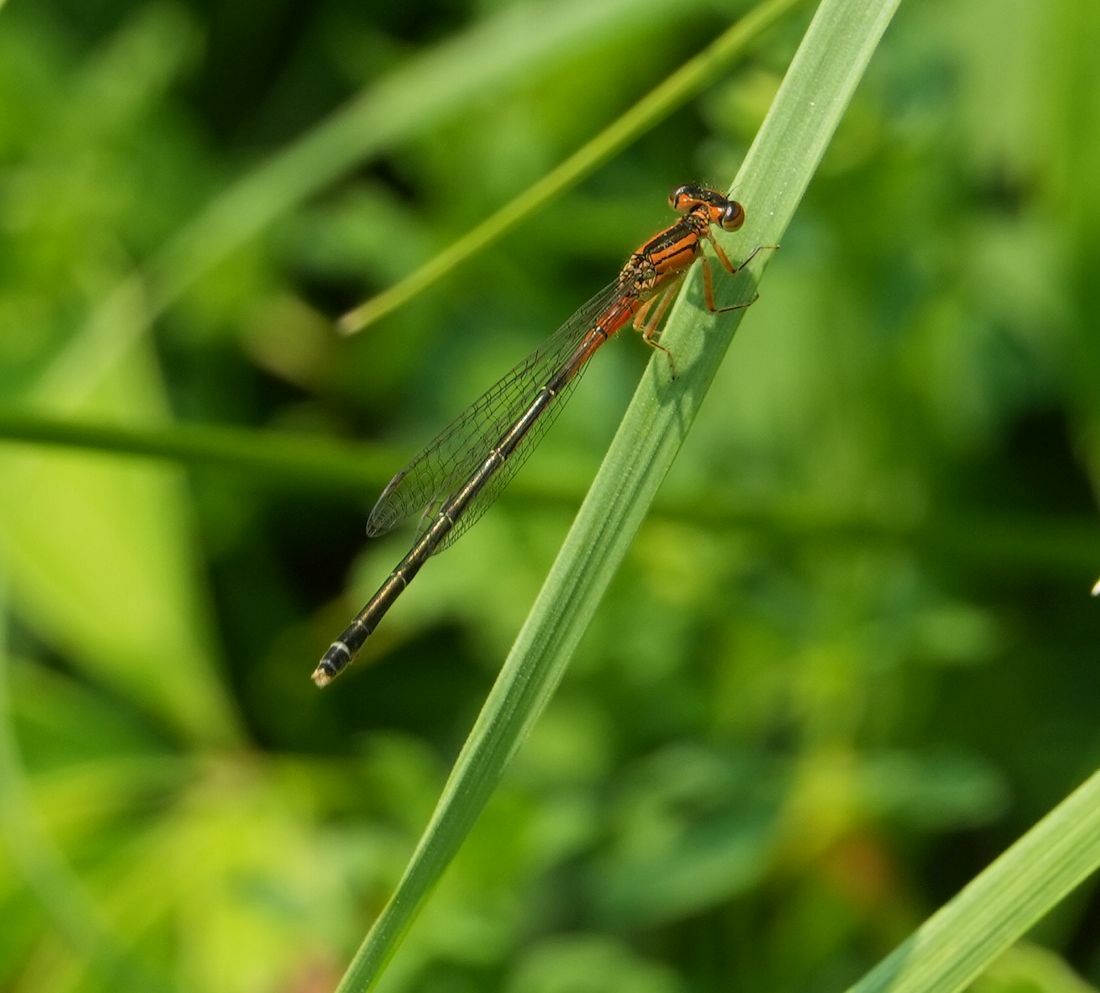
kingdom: Animalia
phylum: Arthropoda
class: Insecta
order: Odonata
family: Coenagrionidae
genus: Ischnura
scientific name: Ischnura verticalis
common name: Eastern forktail
